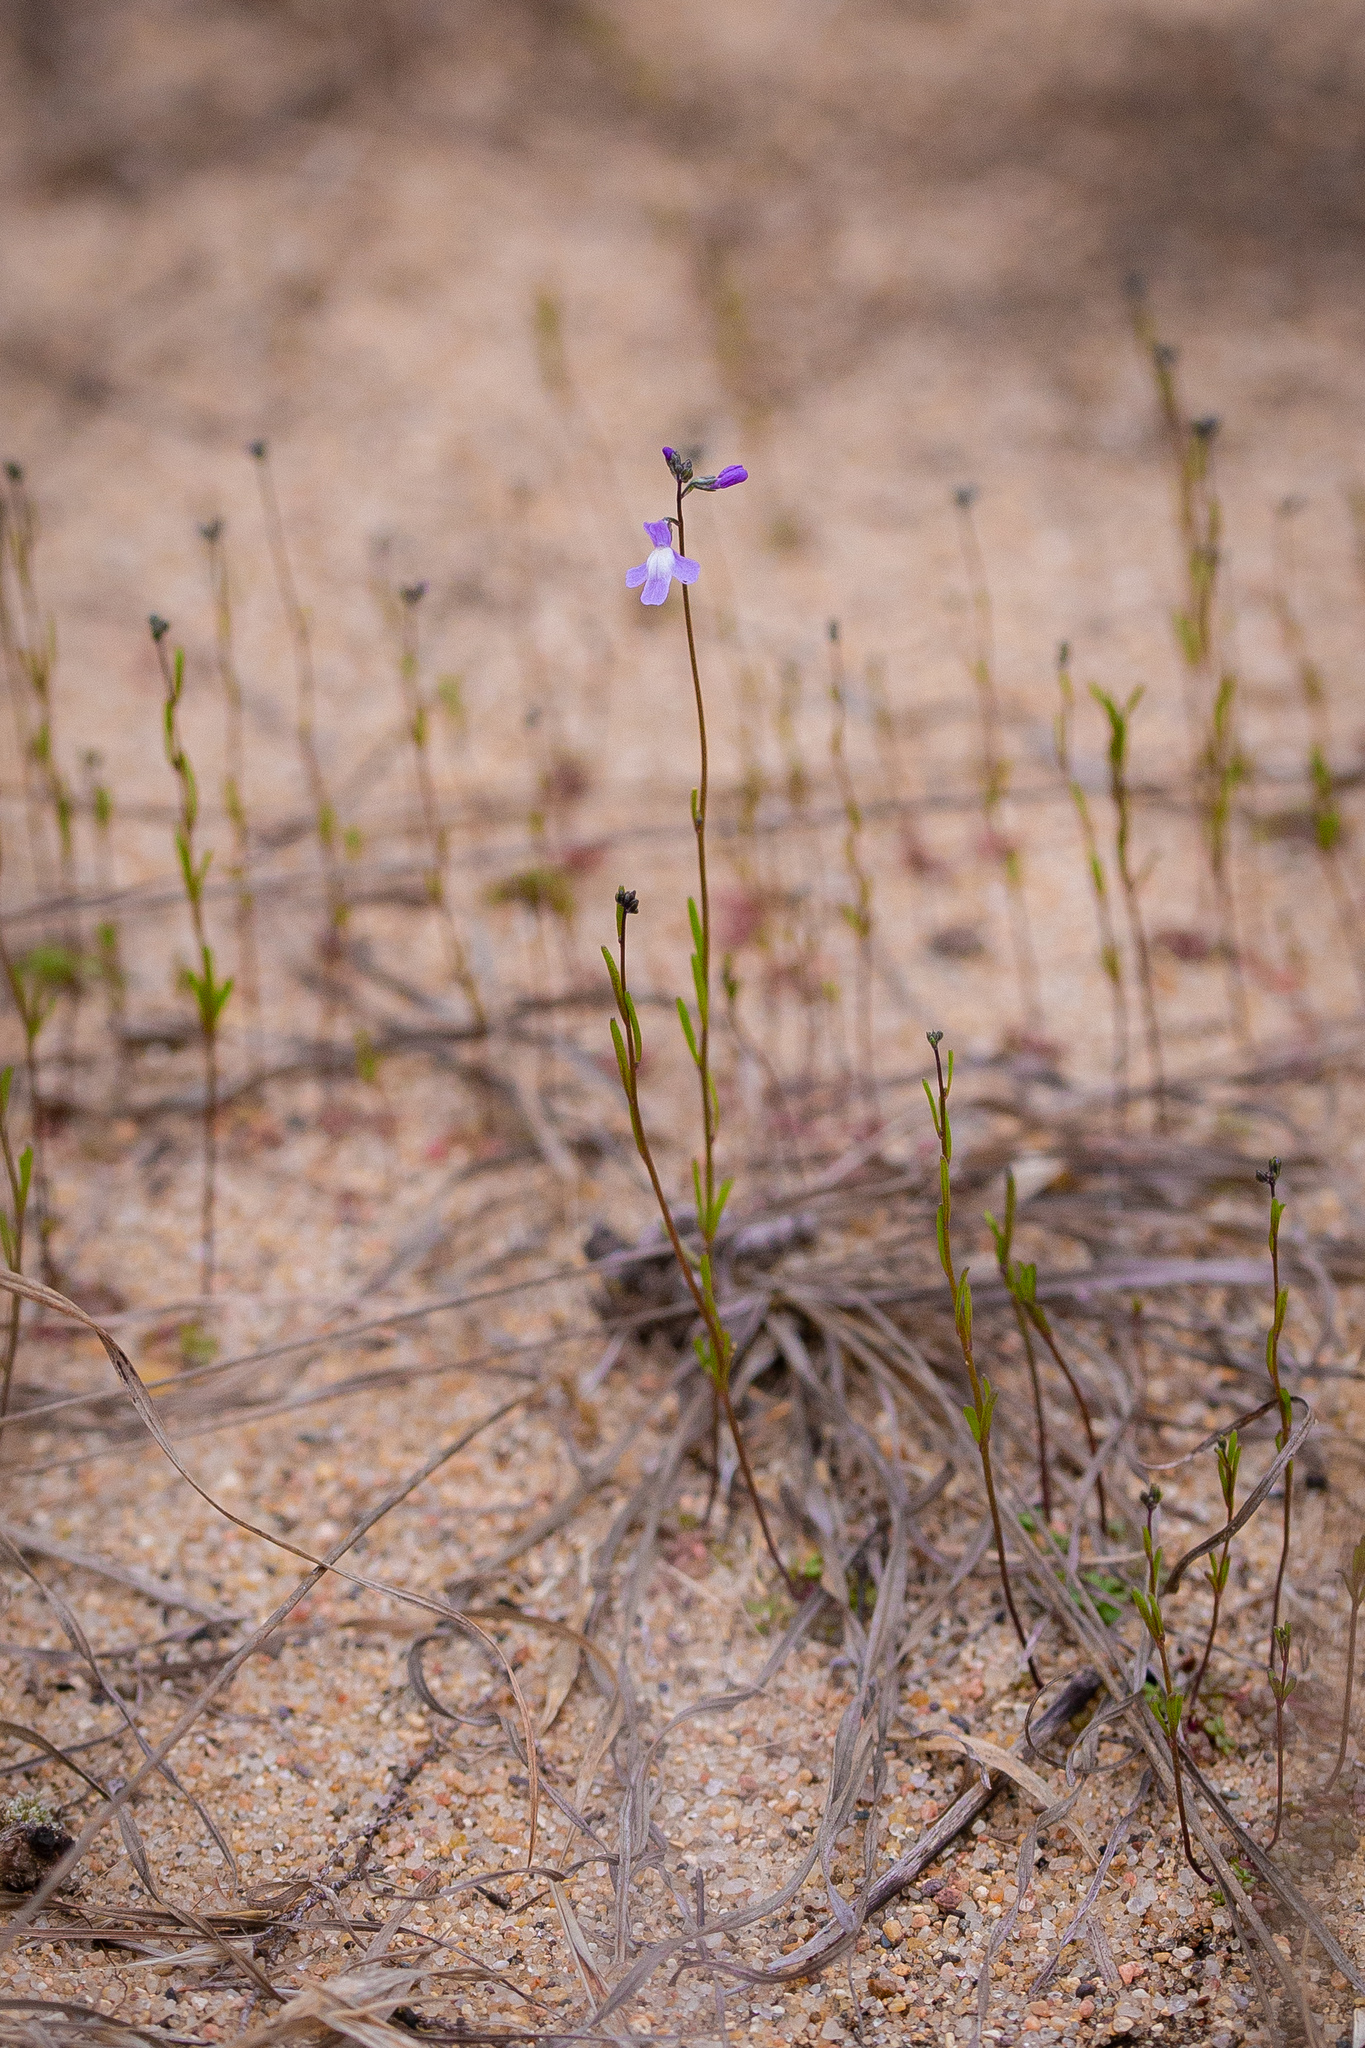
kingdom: Plantae
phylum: Tracheophyta
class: Magnoliopsida
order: Lamiales
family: Plantaginaceae
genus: Nuttallanthus
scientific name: Nuttallanthus canadensis
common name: Blue toadflax
